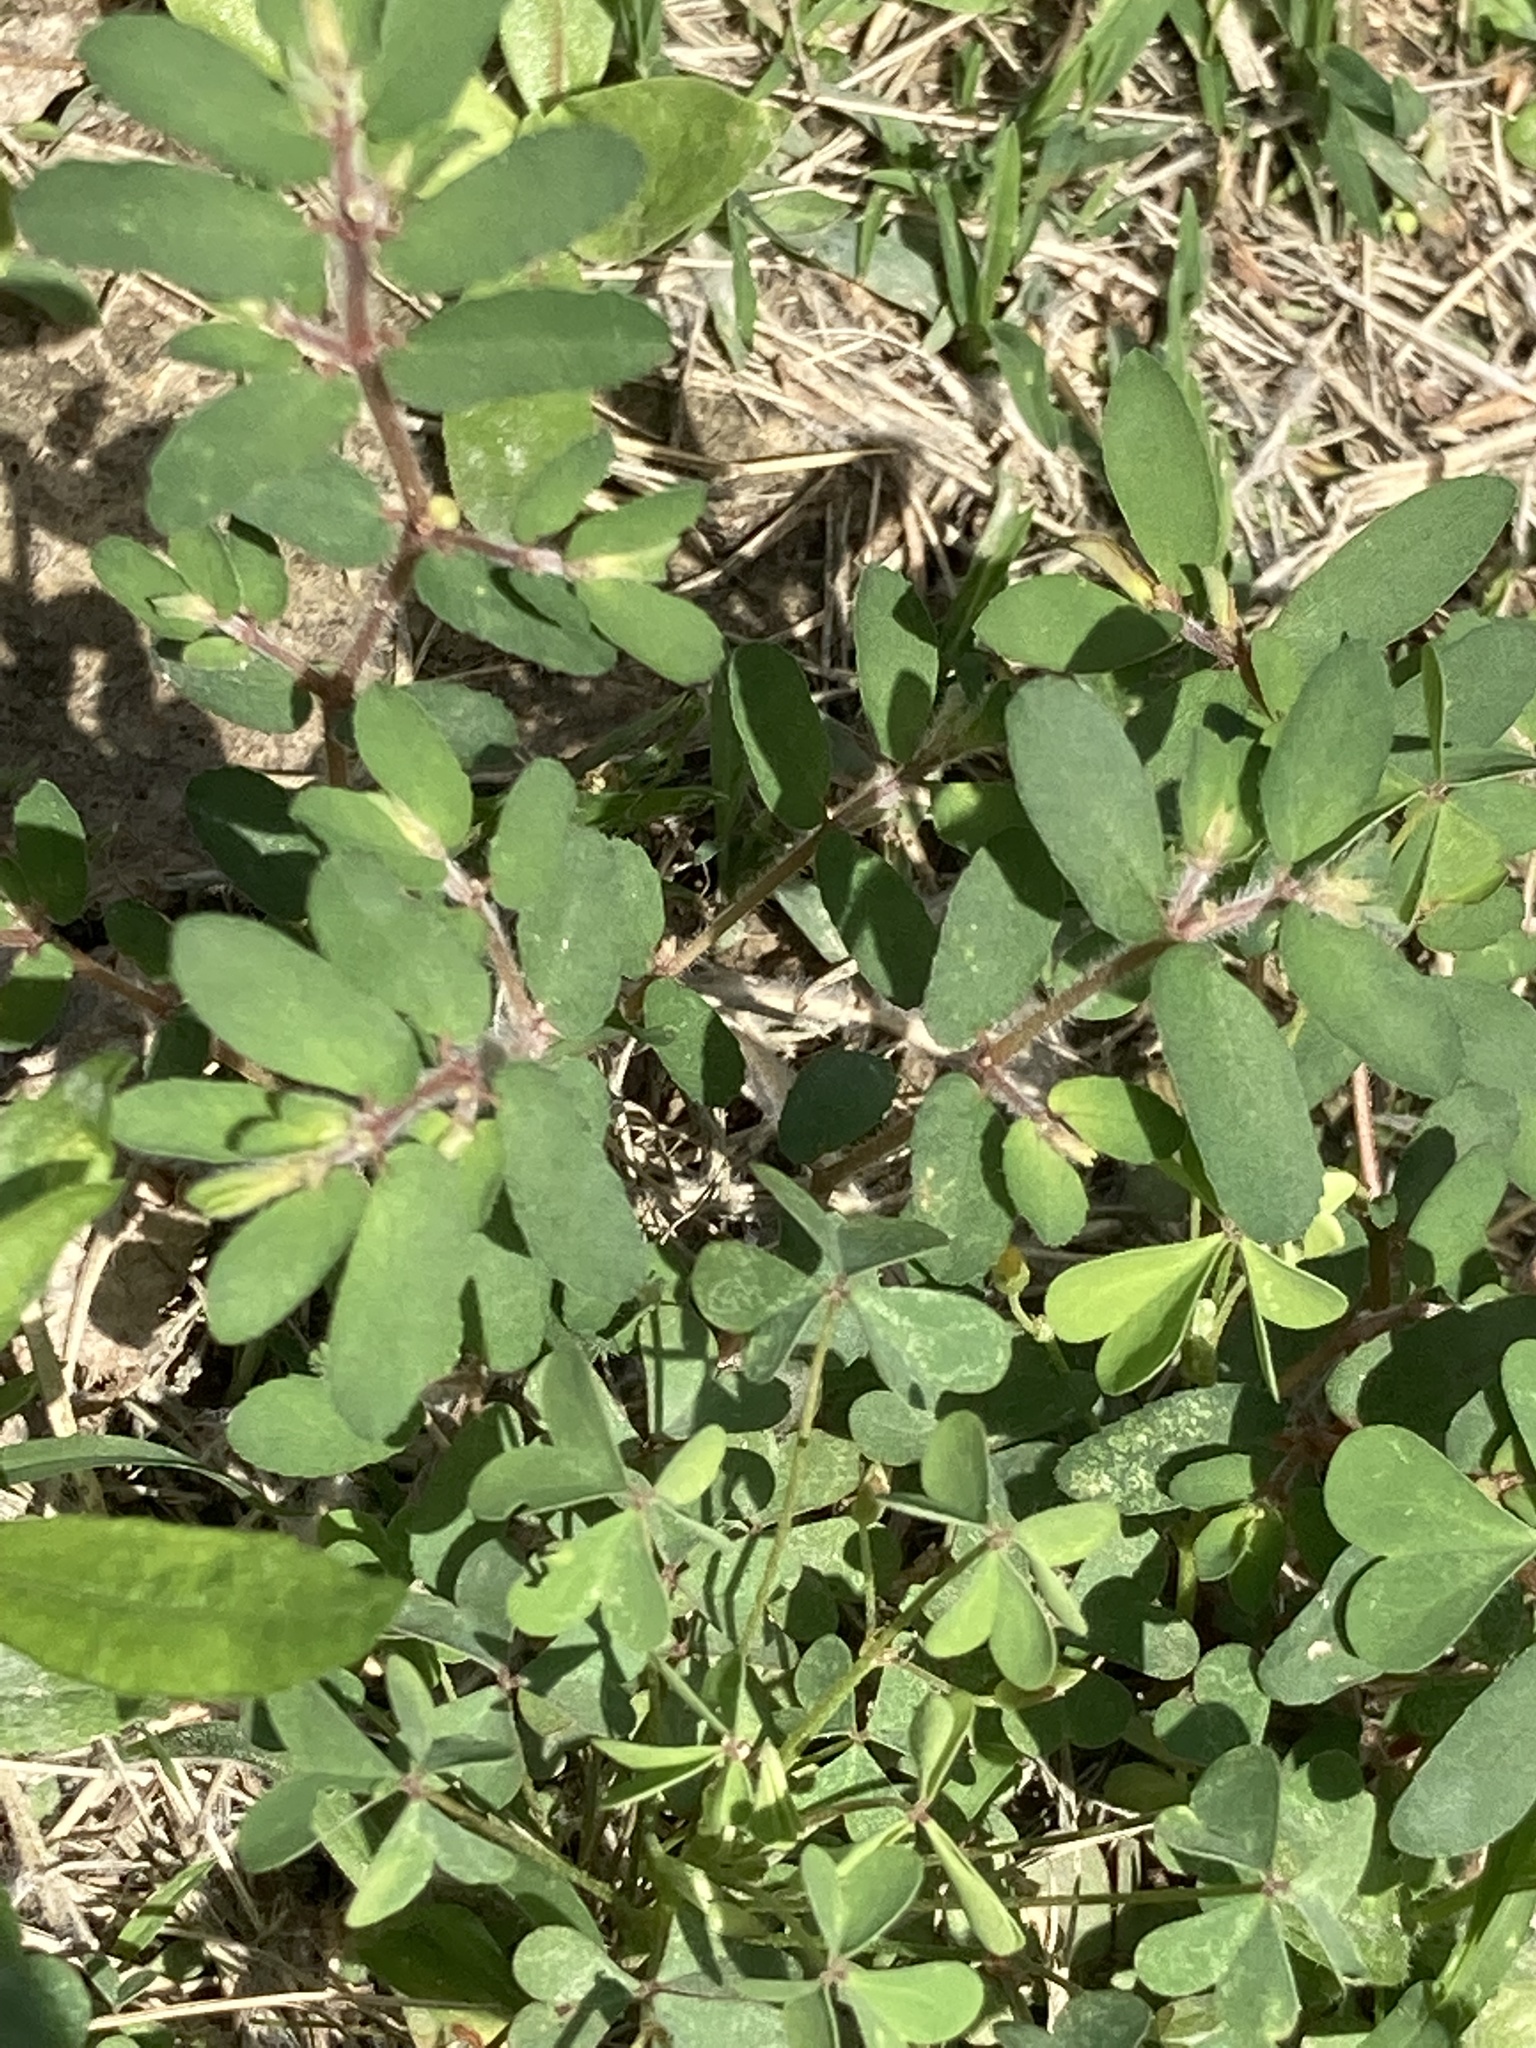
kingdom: Plantae
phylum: Tracheophyta
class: Magnoliopsida
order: Malpighiales
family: Euphorbiaceae
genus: Euphorbia
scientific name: Euphorbia maculata
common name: Spotted spurge
